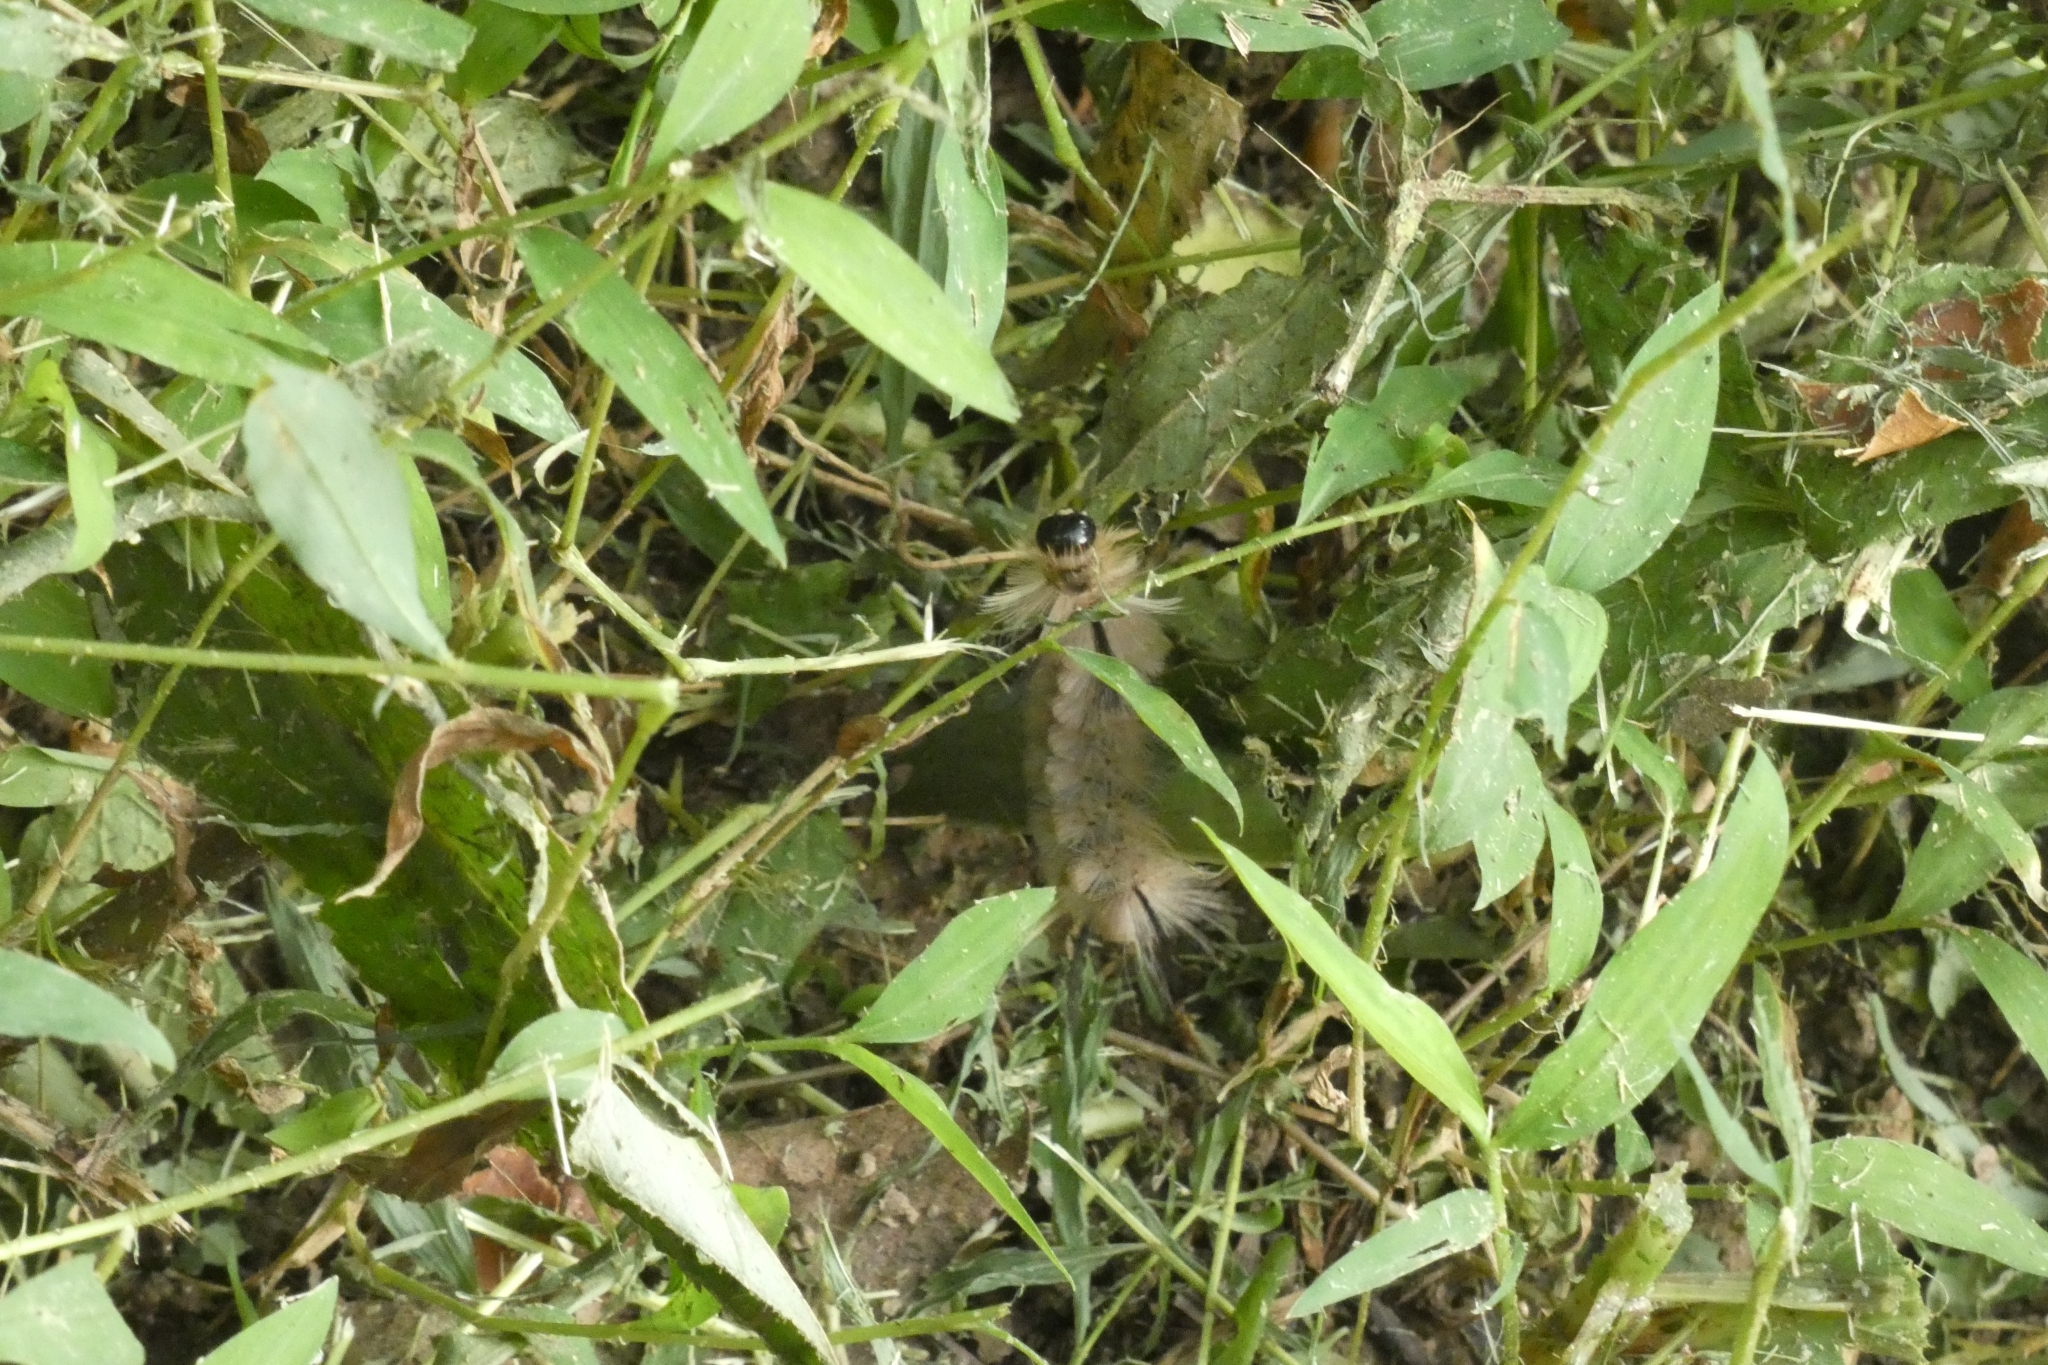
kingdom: Animalia
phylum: Arthropoda
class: Insecta
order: Lepidoptera
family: Erebidae
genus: Halysidota
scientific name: Halysidota tessellaris
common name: Banded tussock moth
